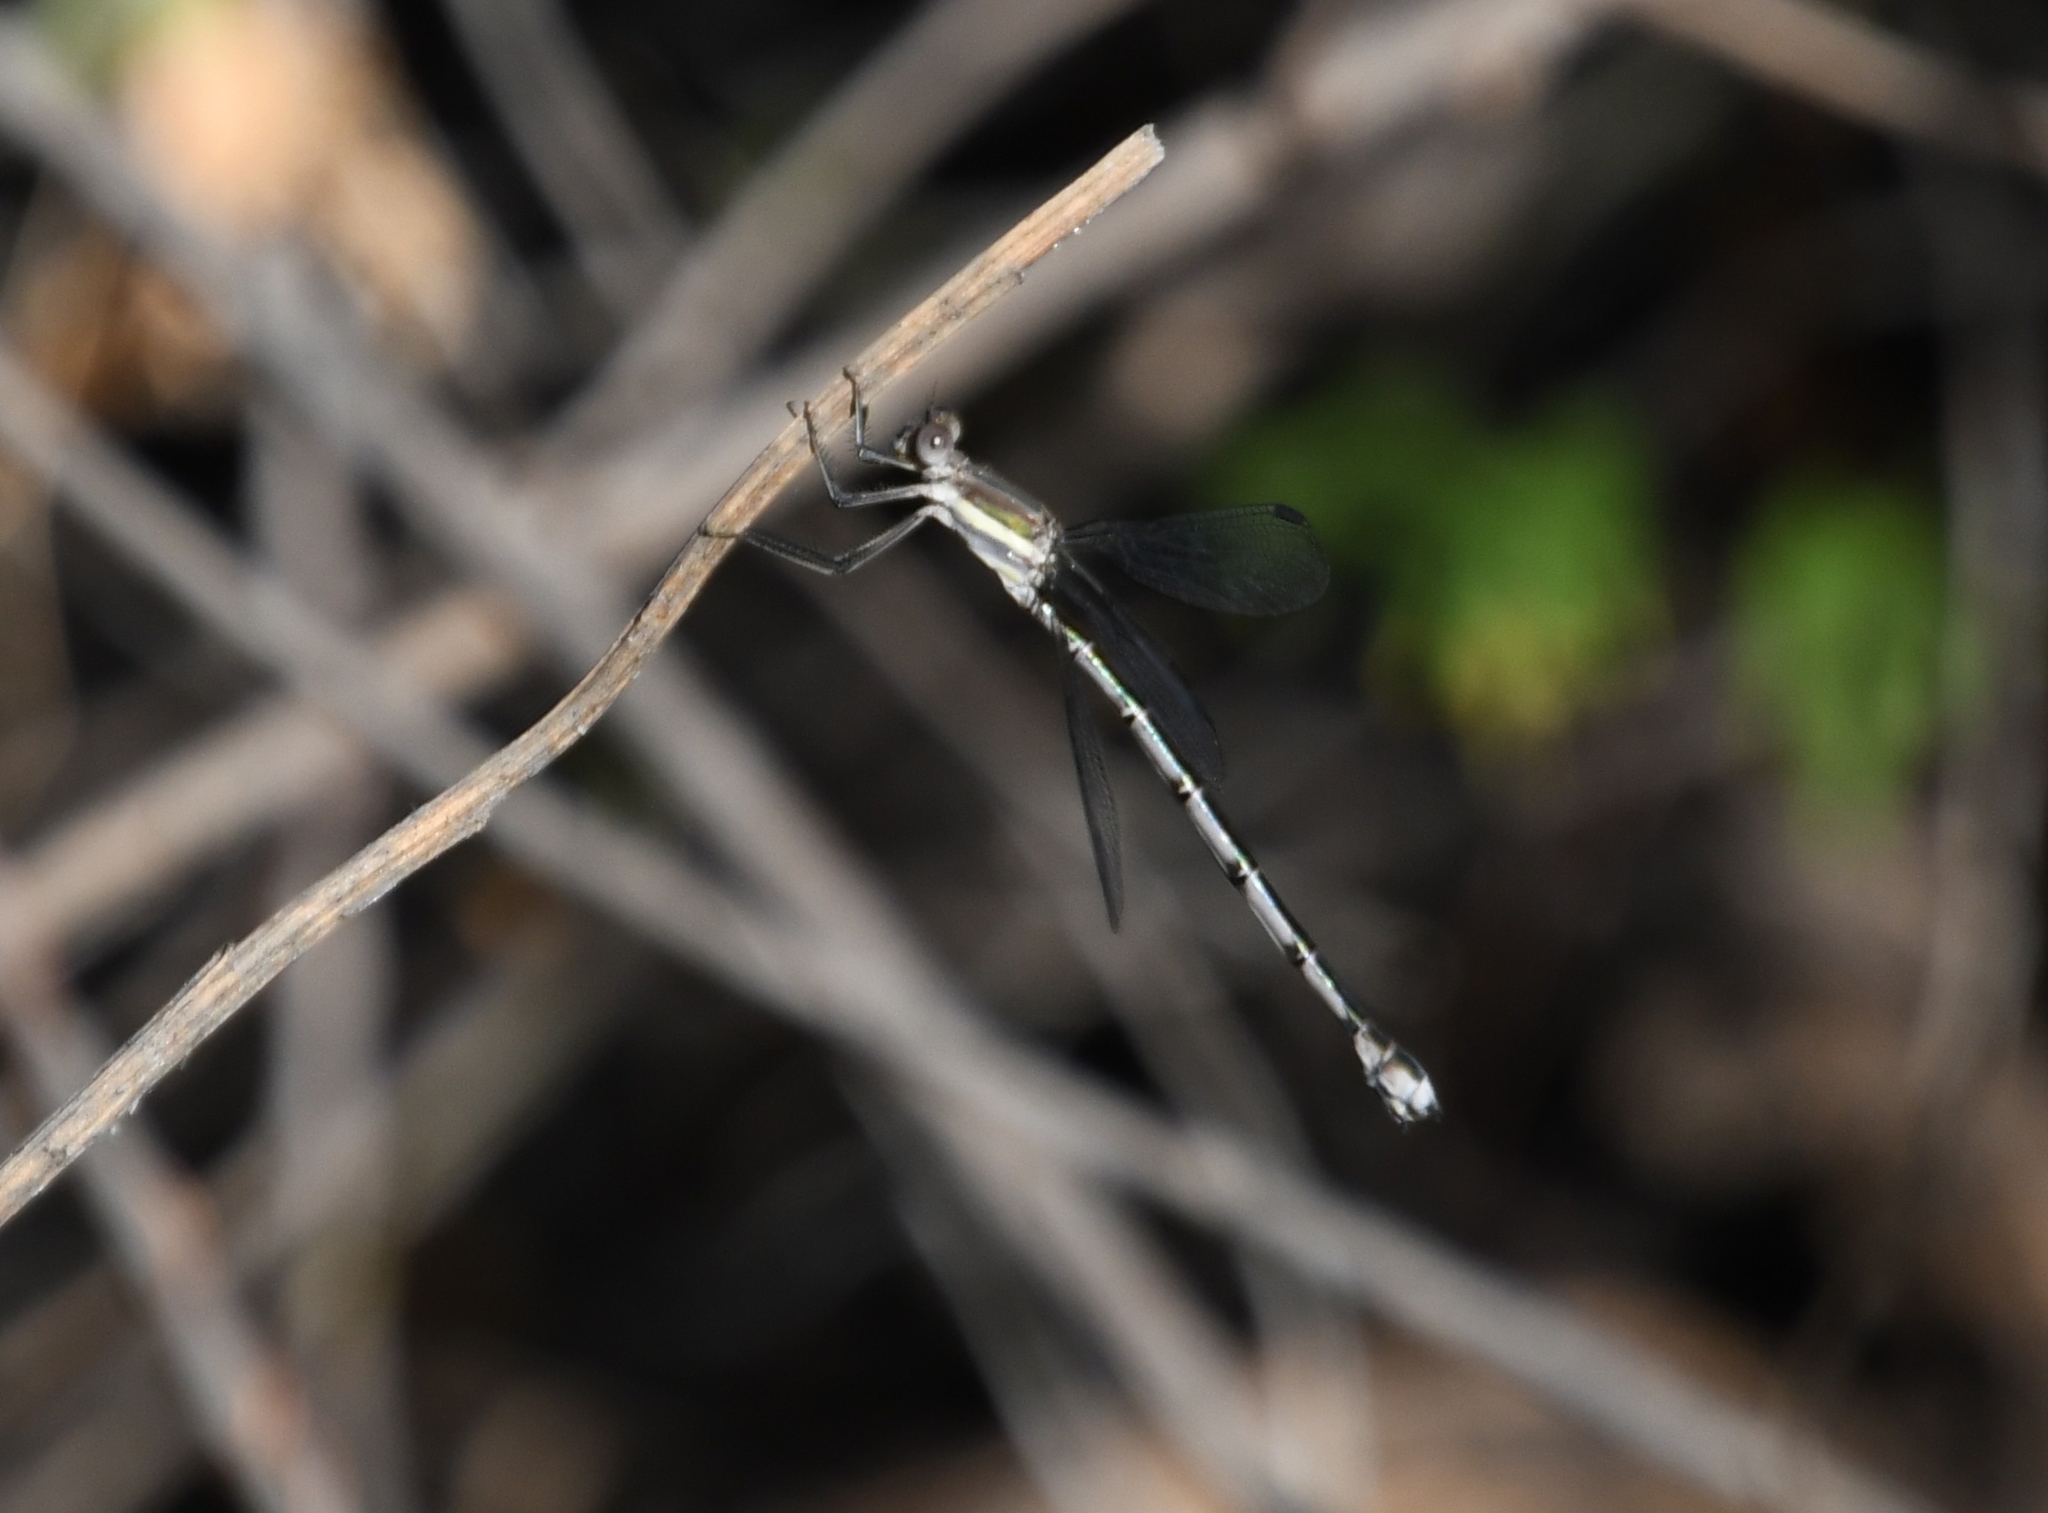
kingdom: Animalia
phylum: Arthropoda
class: Insecta
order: Odonata
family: Lestidae
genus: Archilestes
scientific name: Archilestes grandis
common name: Great spreadwing
